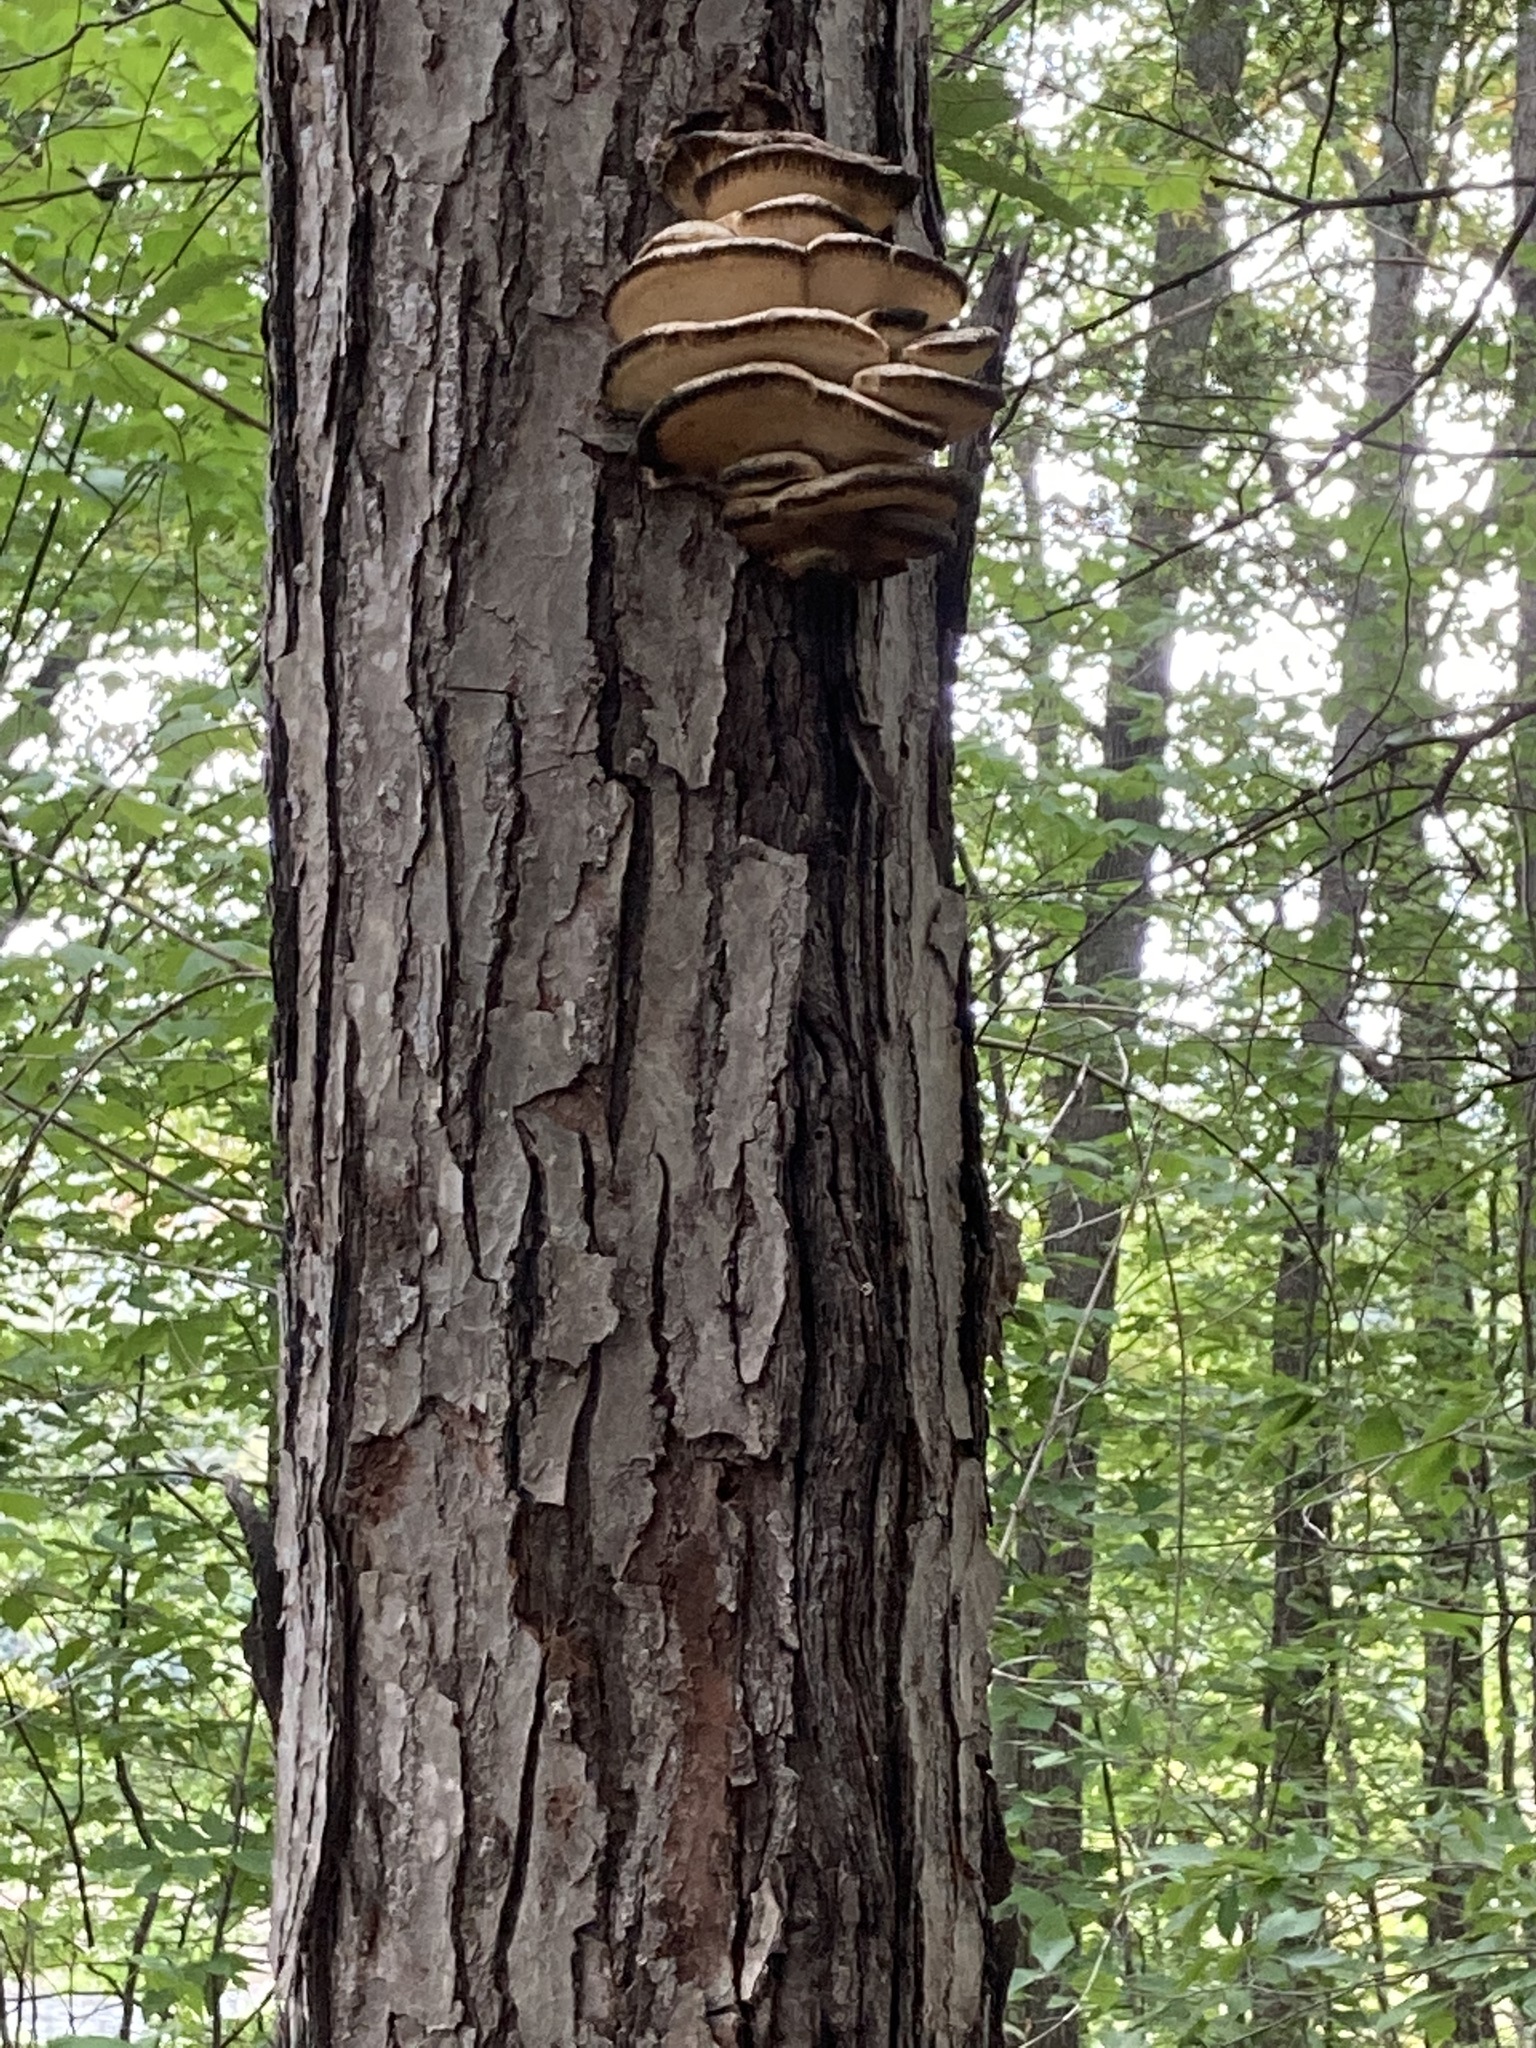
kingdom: Fungi
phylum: Basidiomycota
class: Agaricomycetes
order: Polyporales
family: Meruliaceae
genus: Climacodon
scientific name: Climacodon septentrionalis
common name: Northern tooth
